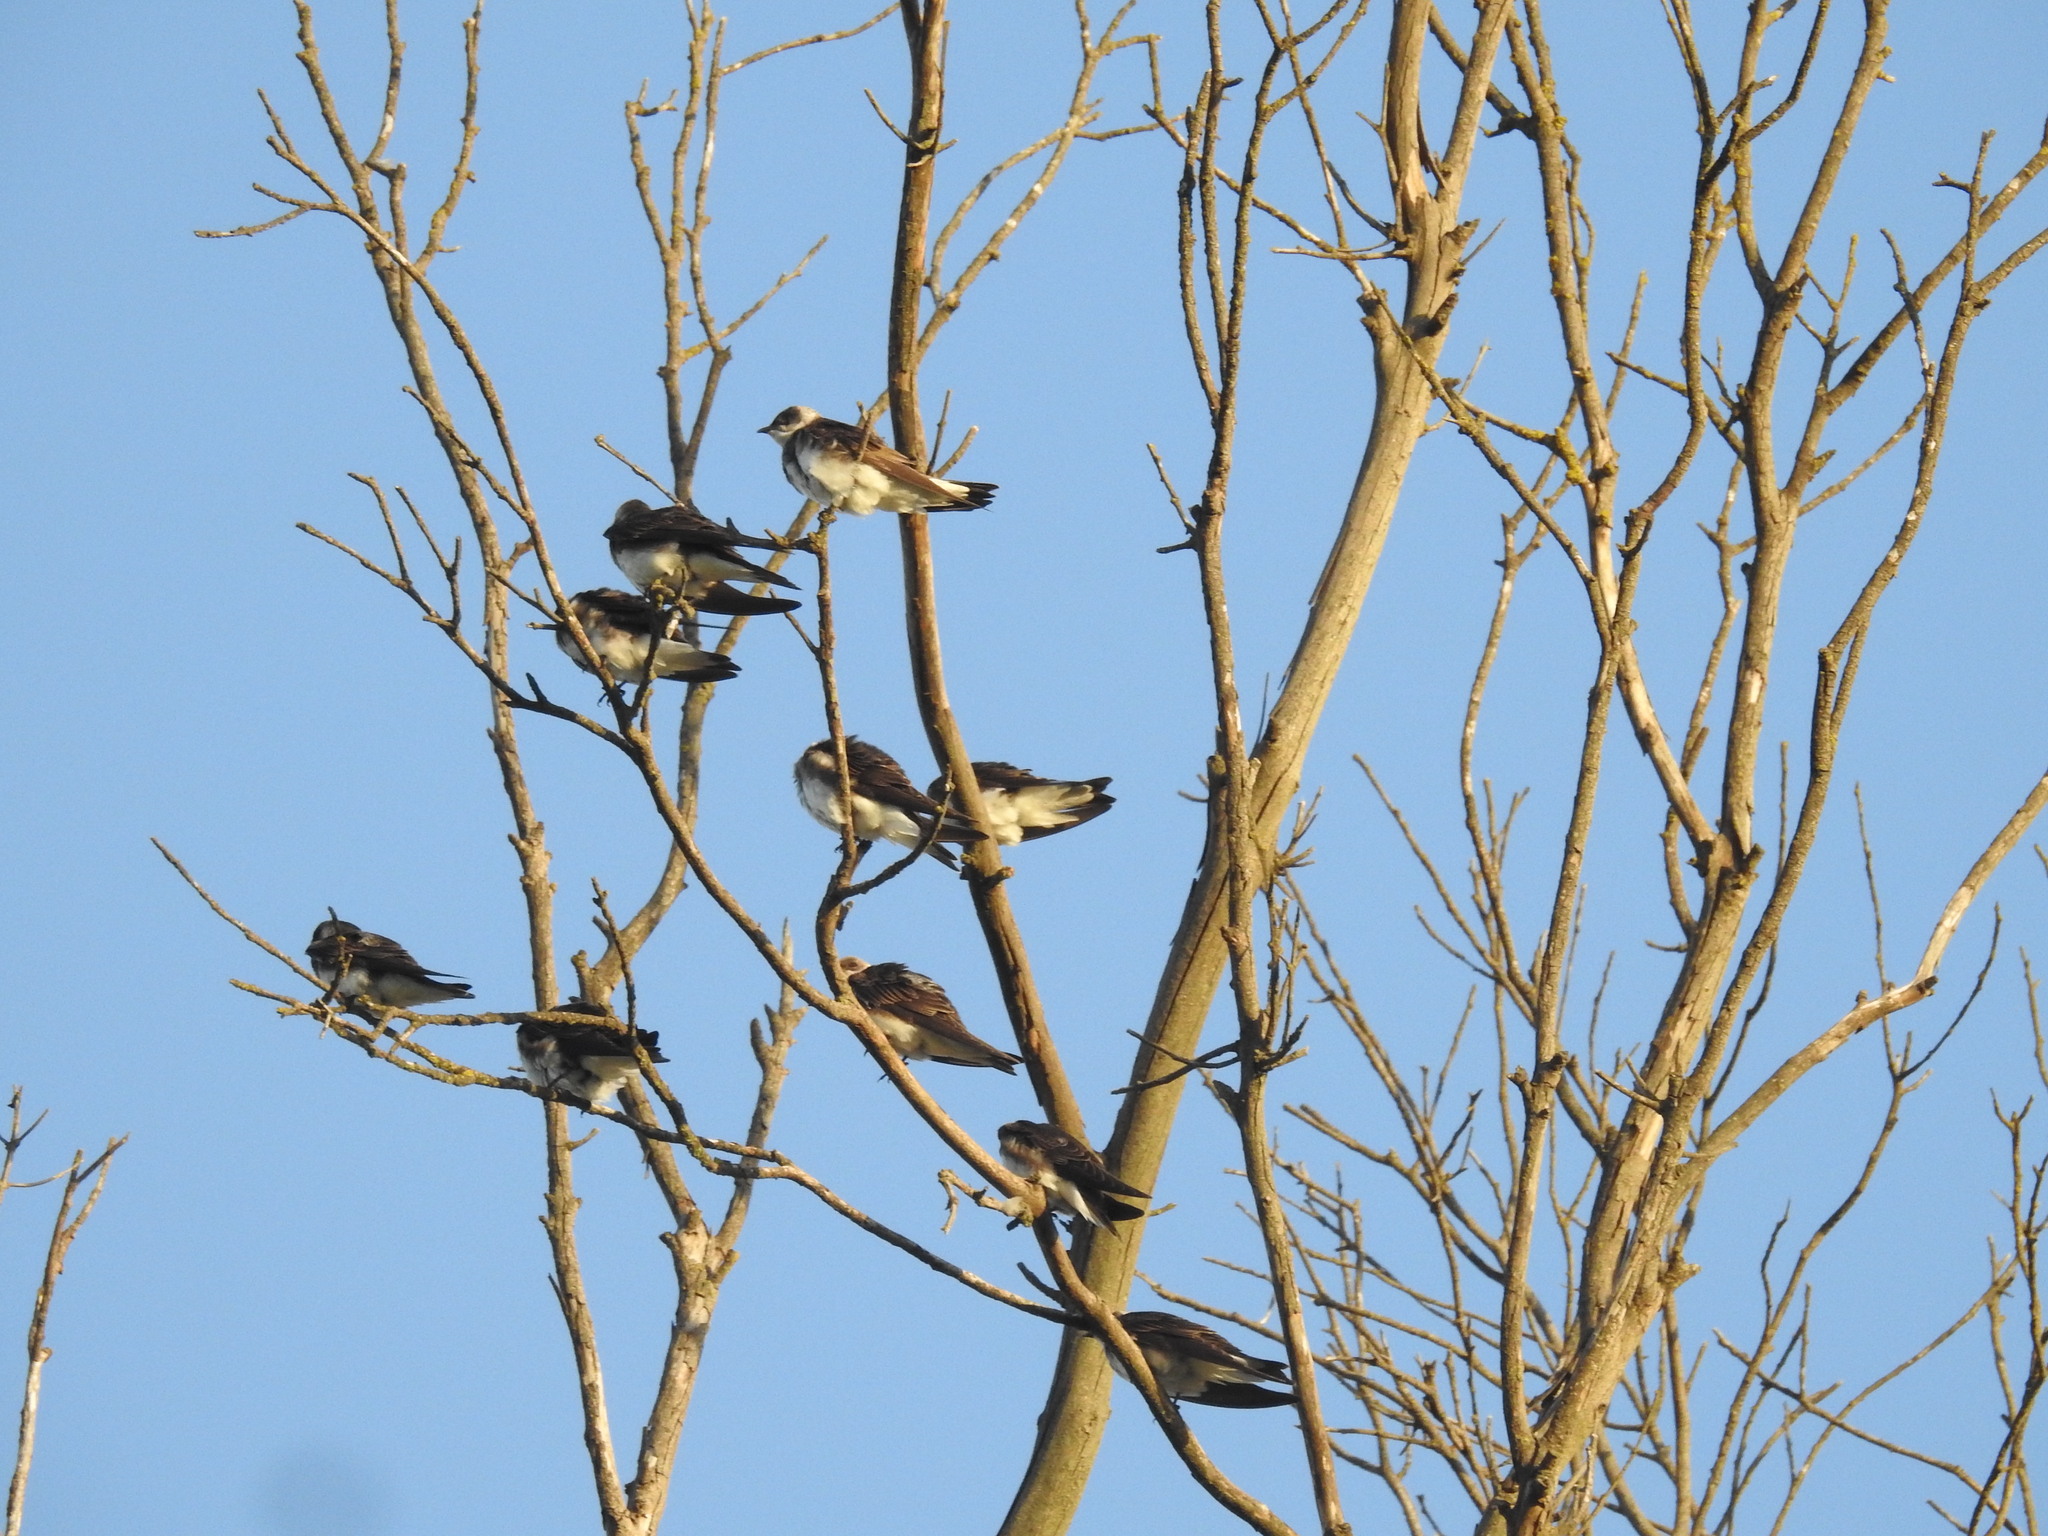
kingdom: Animalia
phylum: Chordata
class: Aves
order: Passeriformes
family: Hirundinidae
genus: Progne
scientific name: Progne tapera
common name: Brown-chested martin
